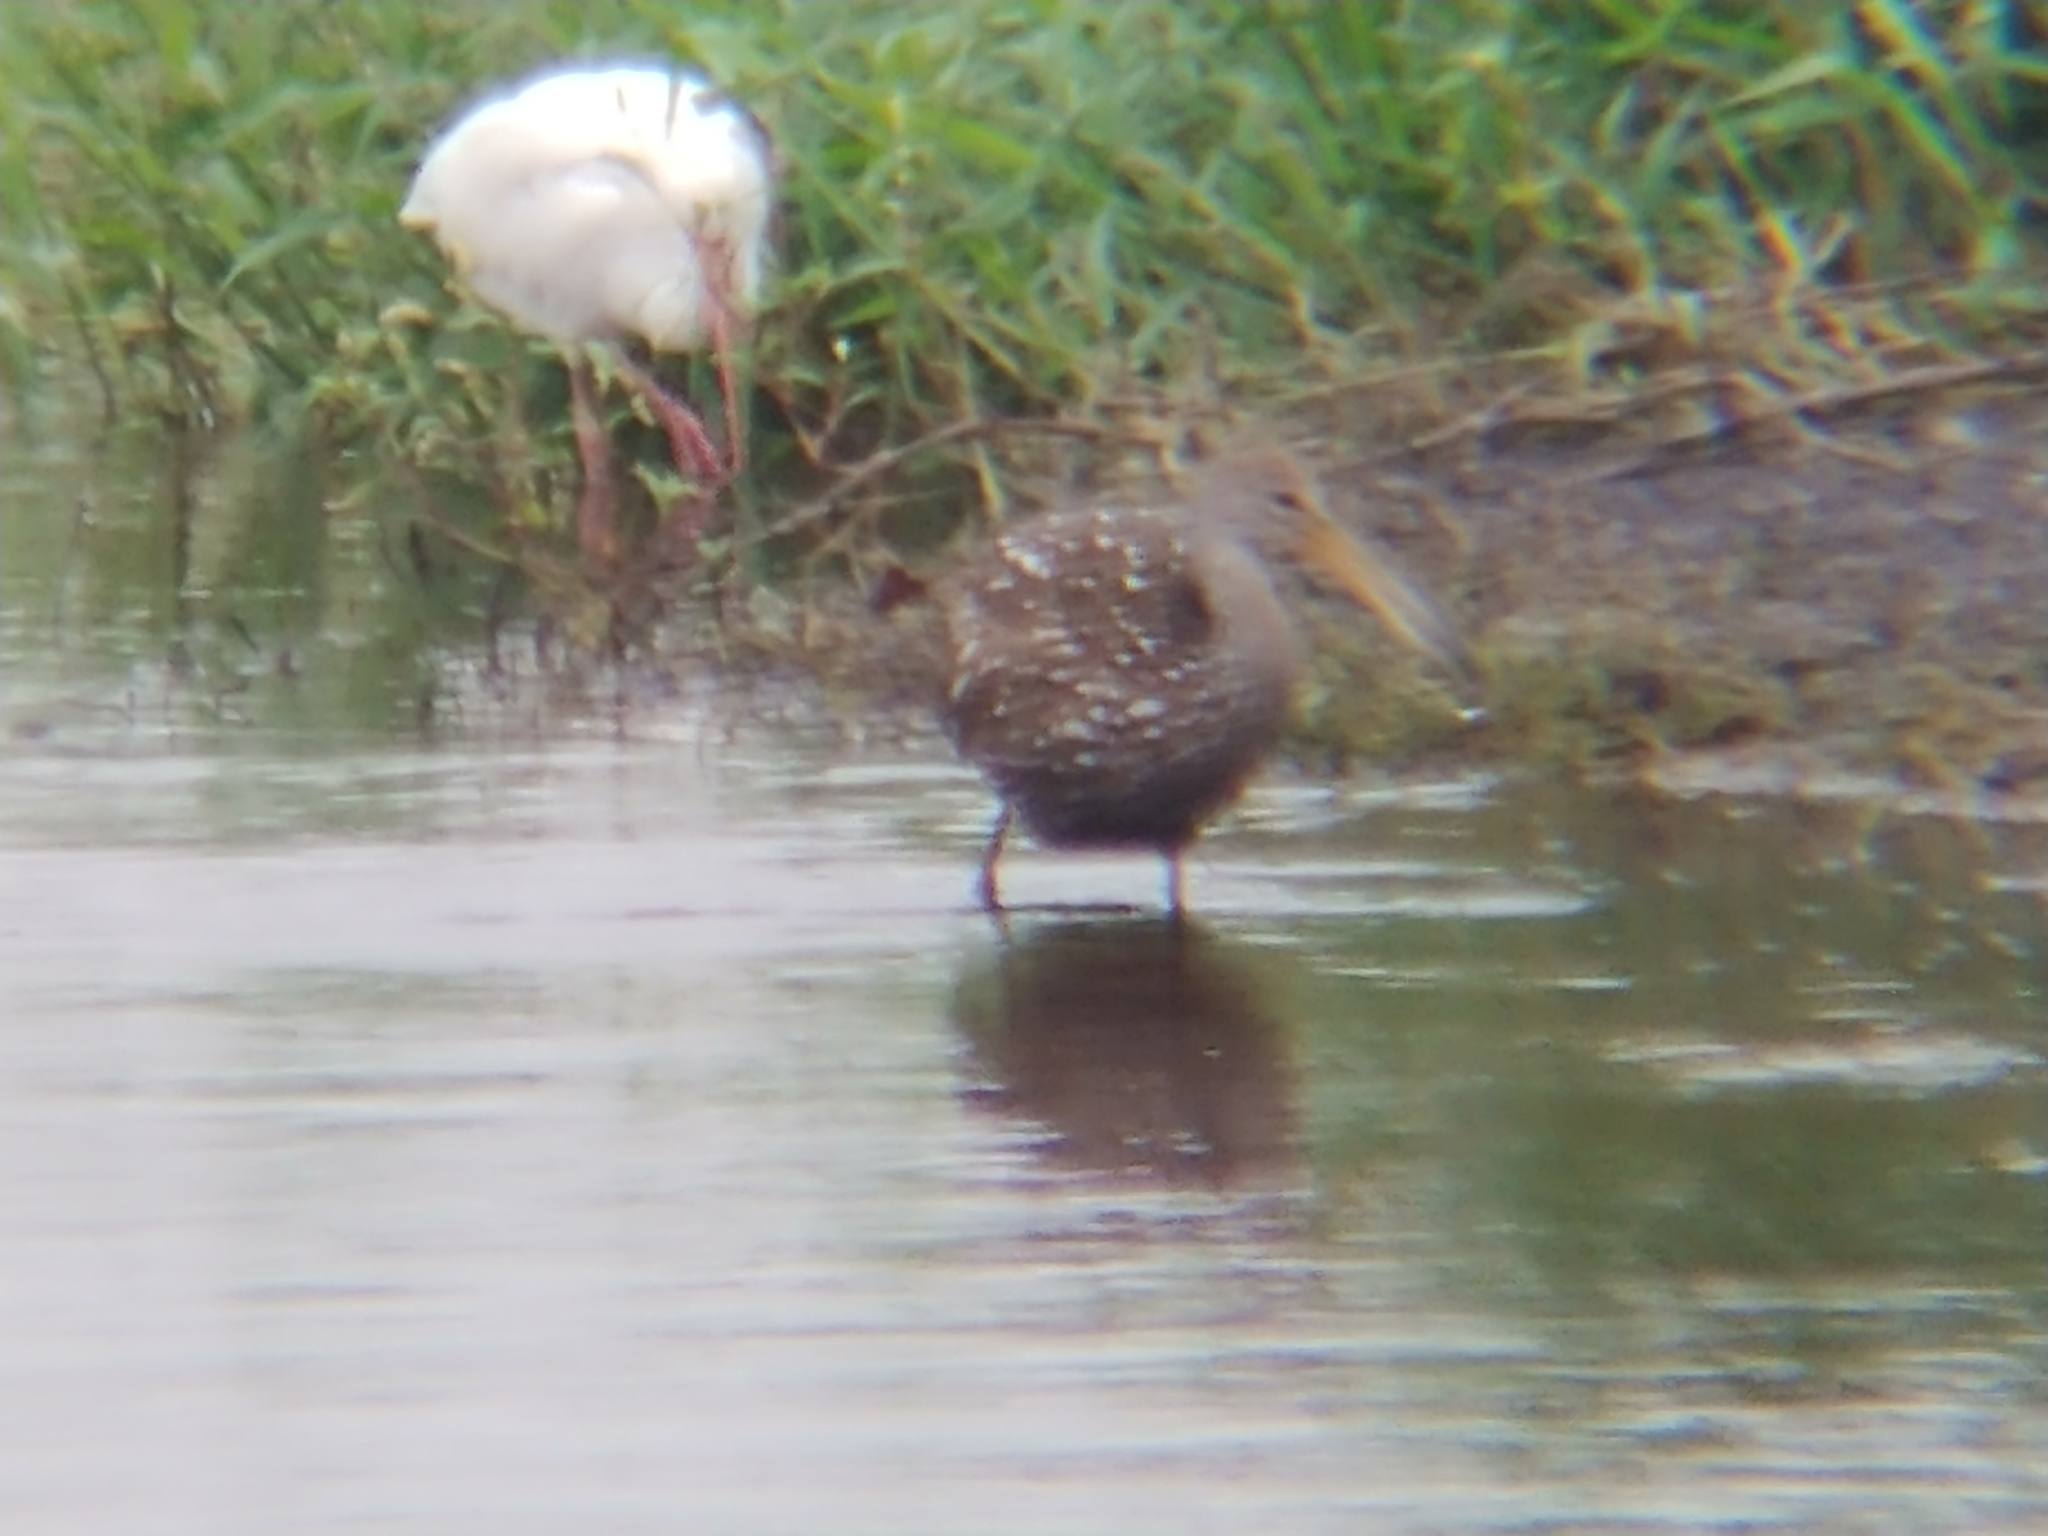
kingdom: Animalia
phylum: Chordata
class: Aves
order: Gruiformes
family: Aramidae
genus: Aramus
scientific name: Aramus guarauna
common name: Limpkin
